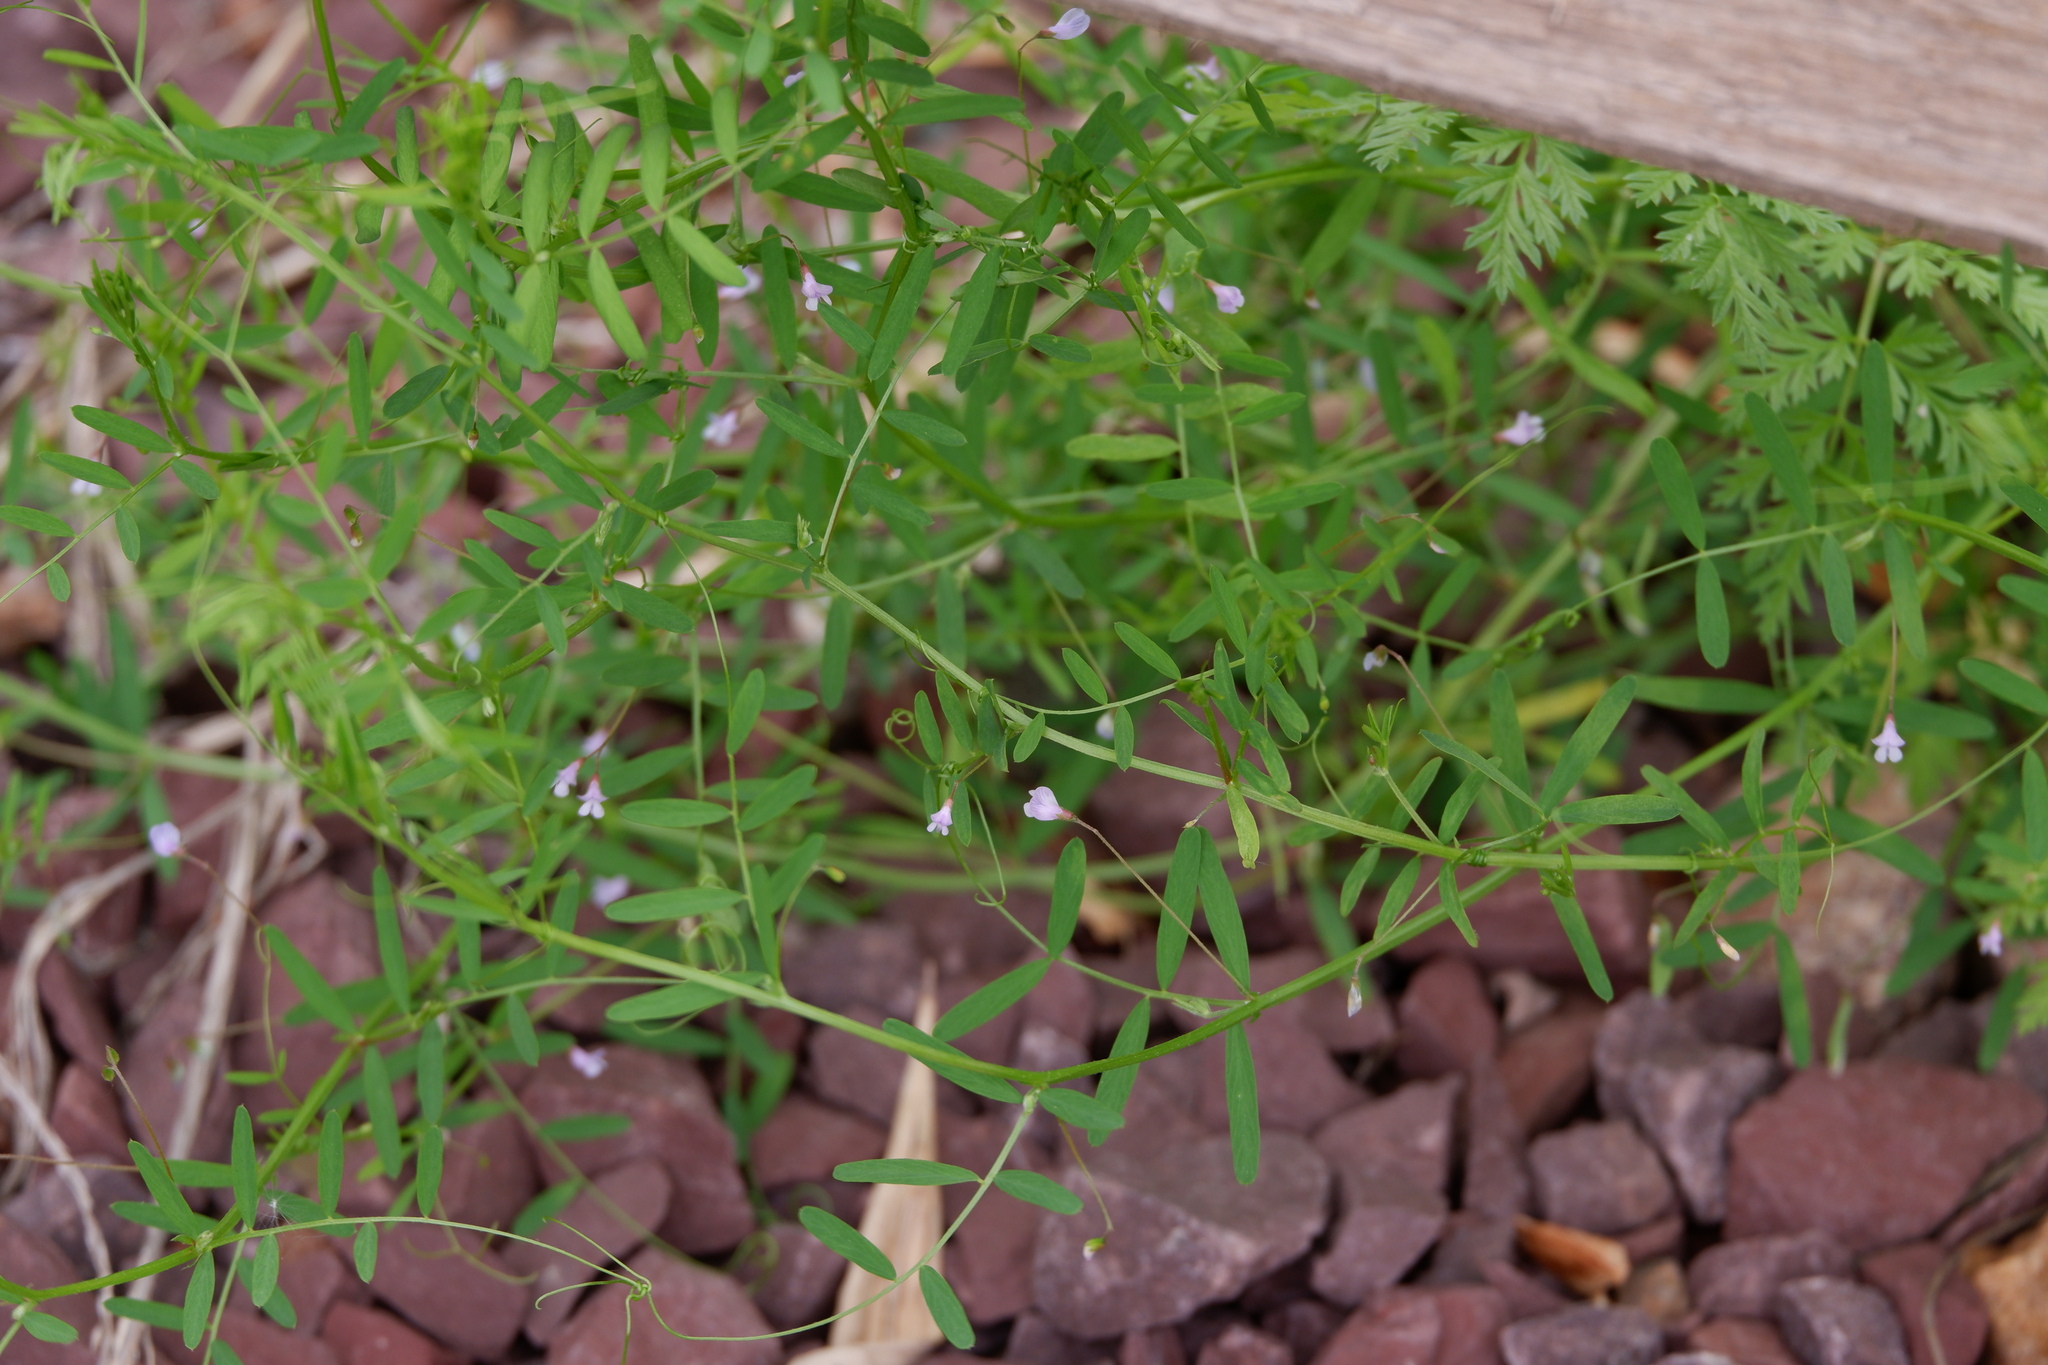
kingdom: Plantae
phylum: Tracheophyta
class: Magnoliopsida
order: Fabales
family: Fabaceae
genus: Vicia
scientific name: Vicia tetrasperma
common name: Smooth tare
